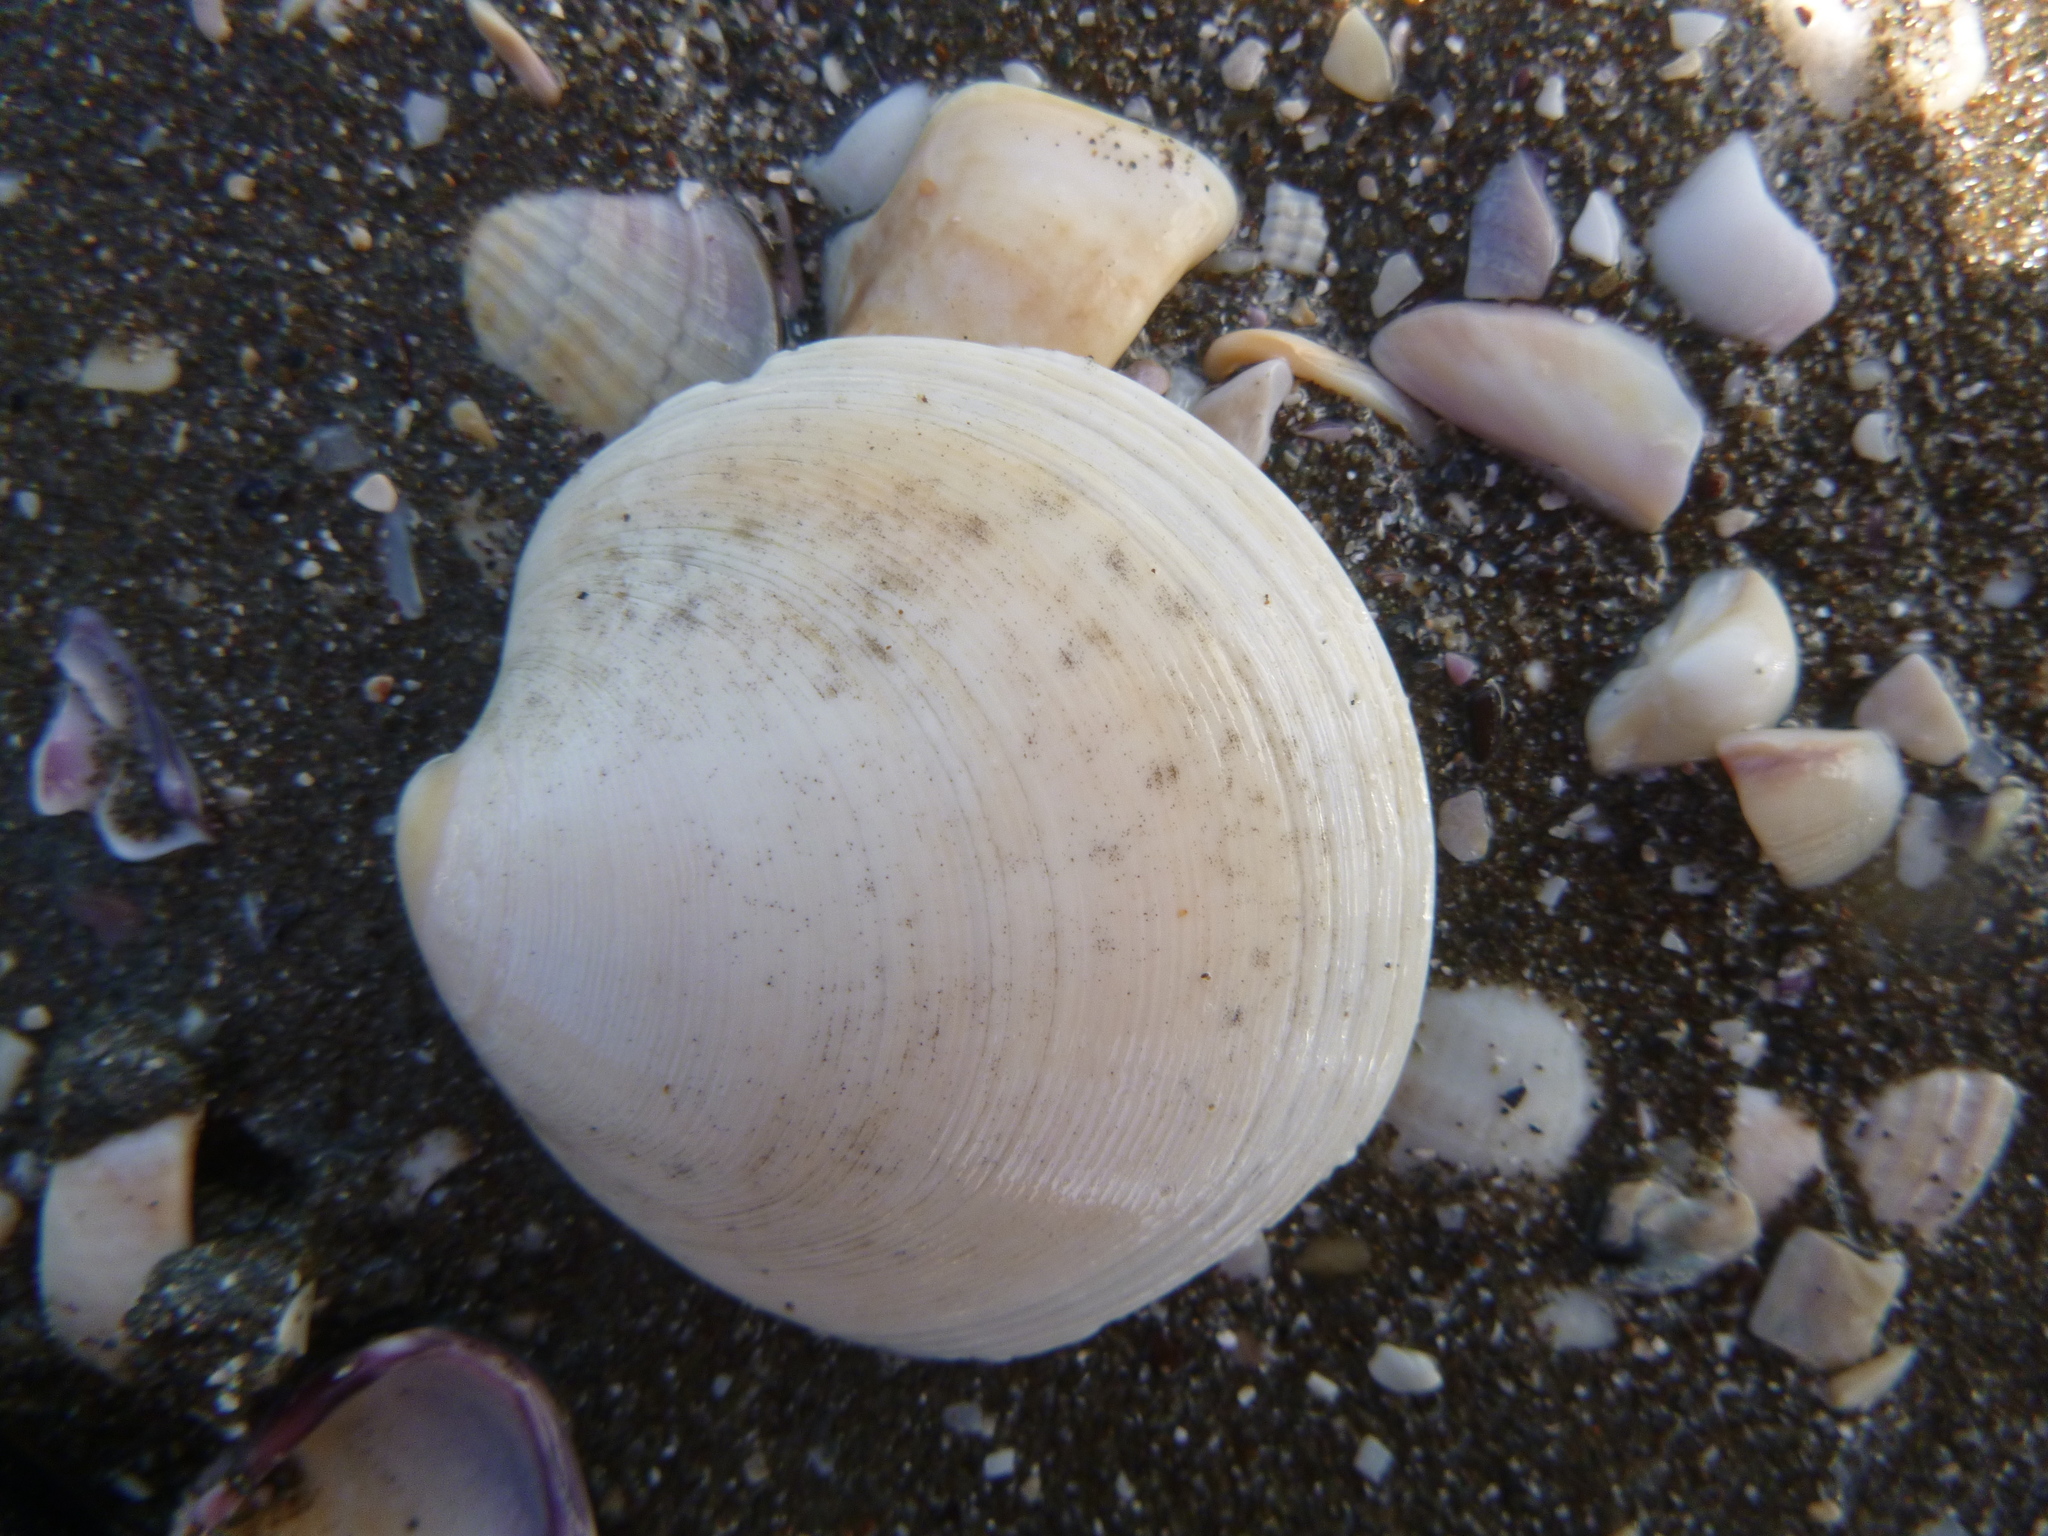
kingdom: Animalia
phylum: Mollusca
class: Bivalvia
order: Venerida
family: Veneridae
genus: Dosinia
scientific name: Dosinia subrosea
